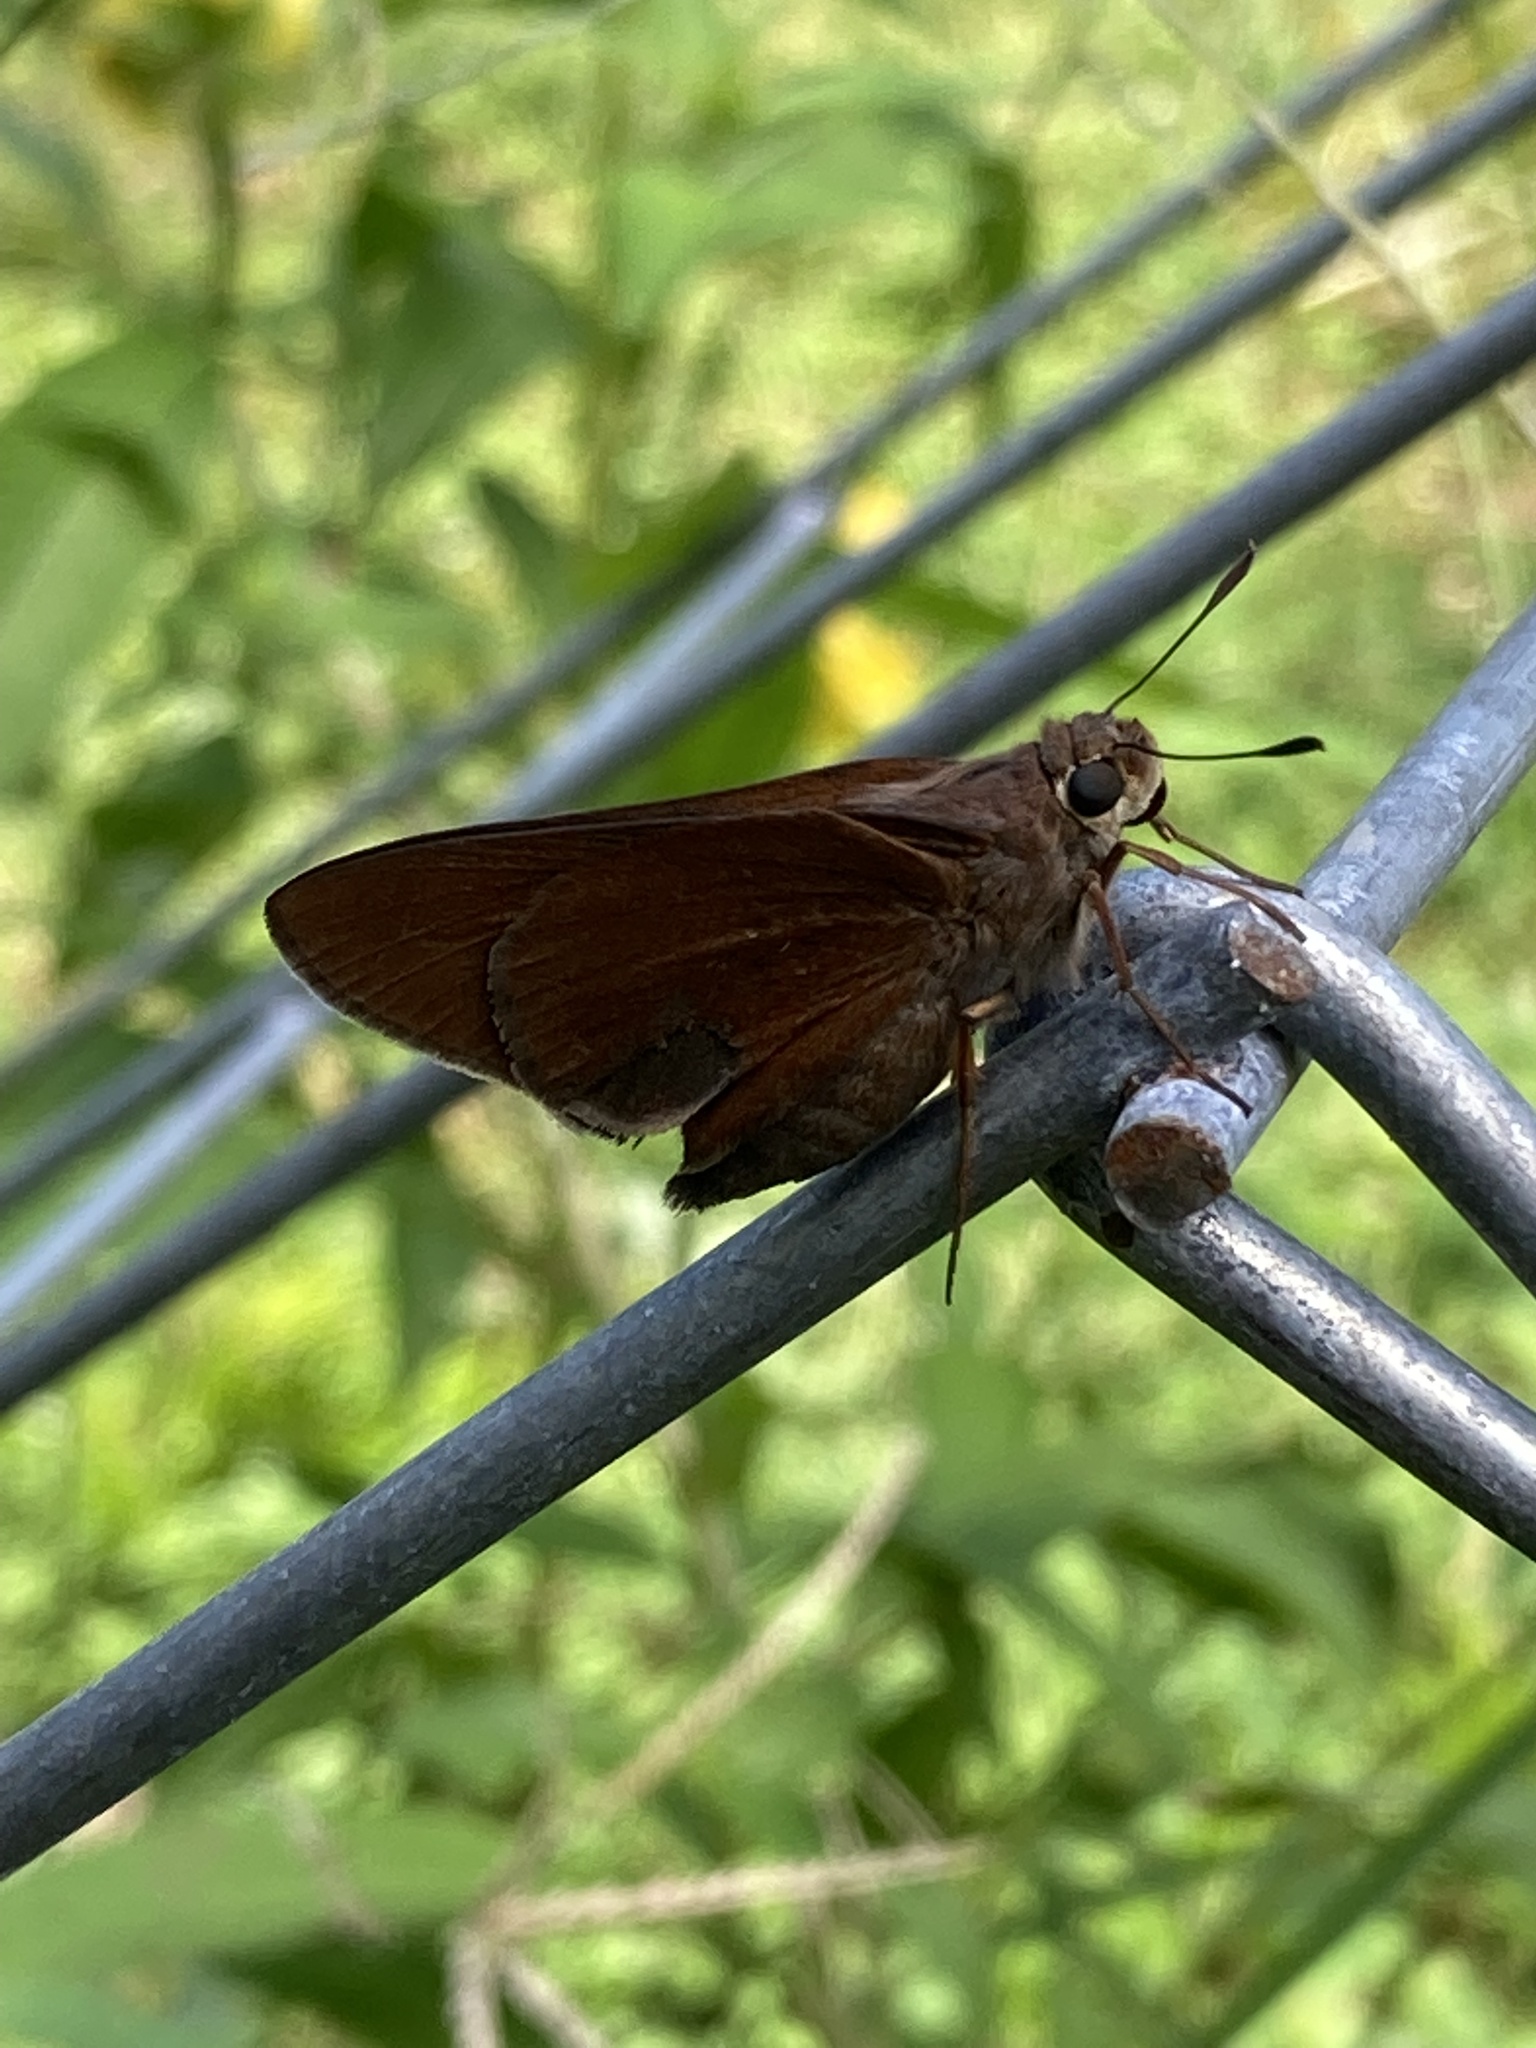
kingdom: Animalia
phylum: Arthropoda
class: Insecta
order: Lepidoptera
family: Hesperiidae
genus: Asbolis
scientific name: Asbolis capucinus
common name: Monk skipper
